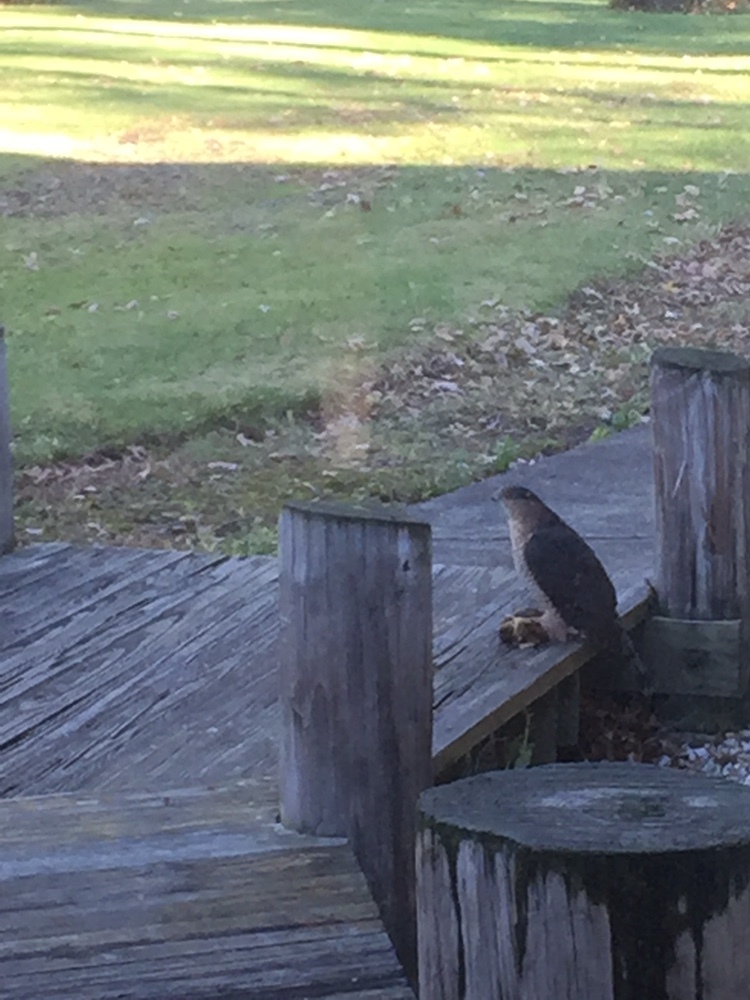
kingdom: Animalia
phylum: Chordata
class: Aves
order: Accipitriformes
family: Accipitridae
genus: Accipiter
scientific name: Accipiter cooperii
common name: Cooper's hawk
